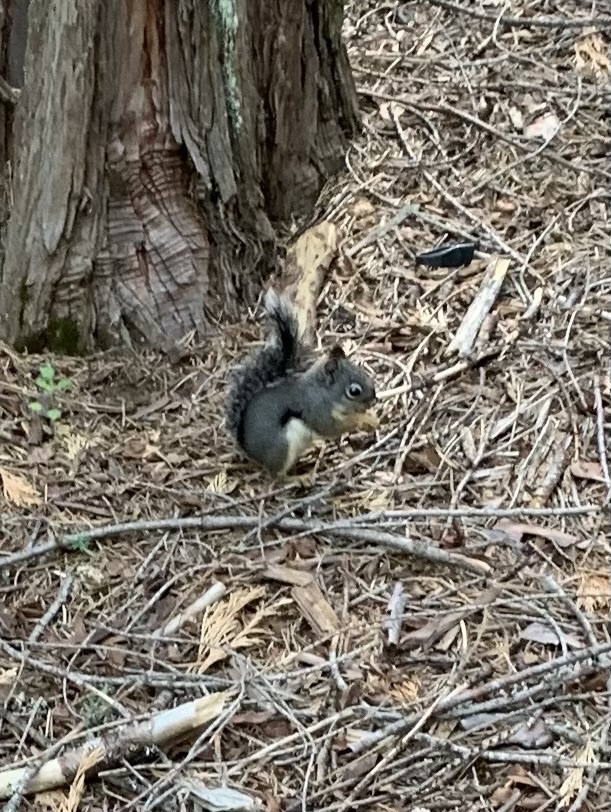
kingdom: Animalia
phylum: Chordata
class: Mammalia
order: Rodentia
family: Sciuridae
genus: Tamiasciurus
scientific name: Tamiasciurus douglasii
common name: Douglas's squirrel
